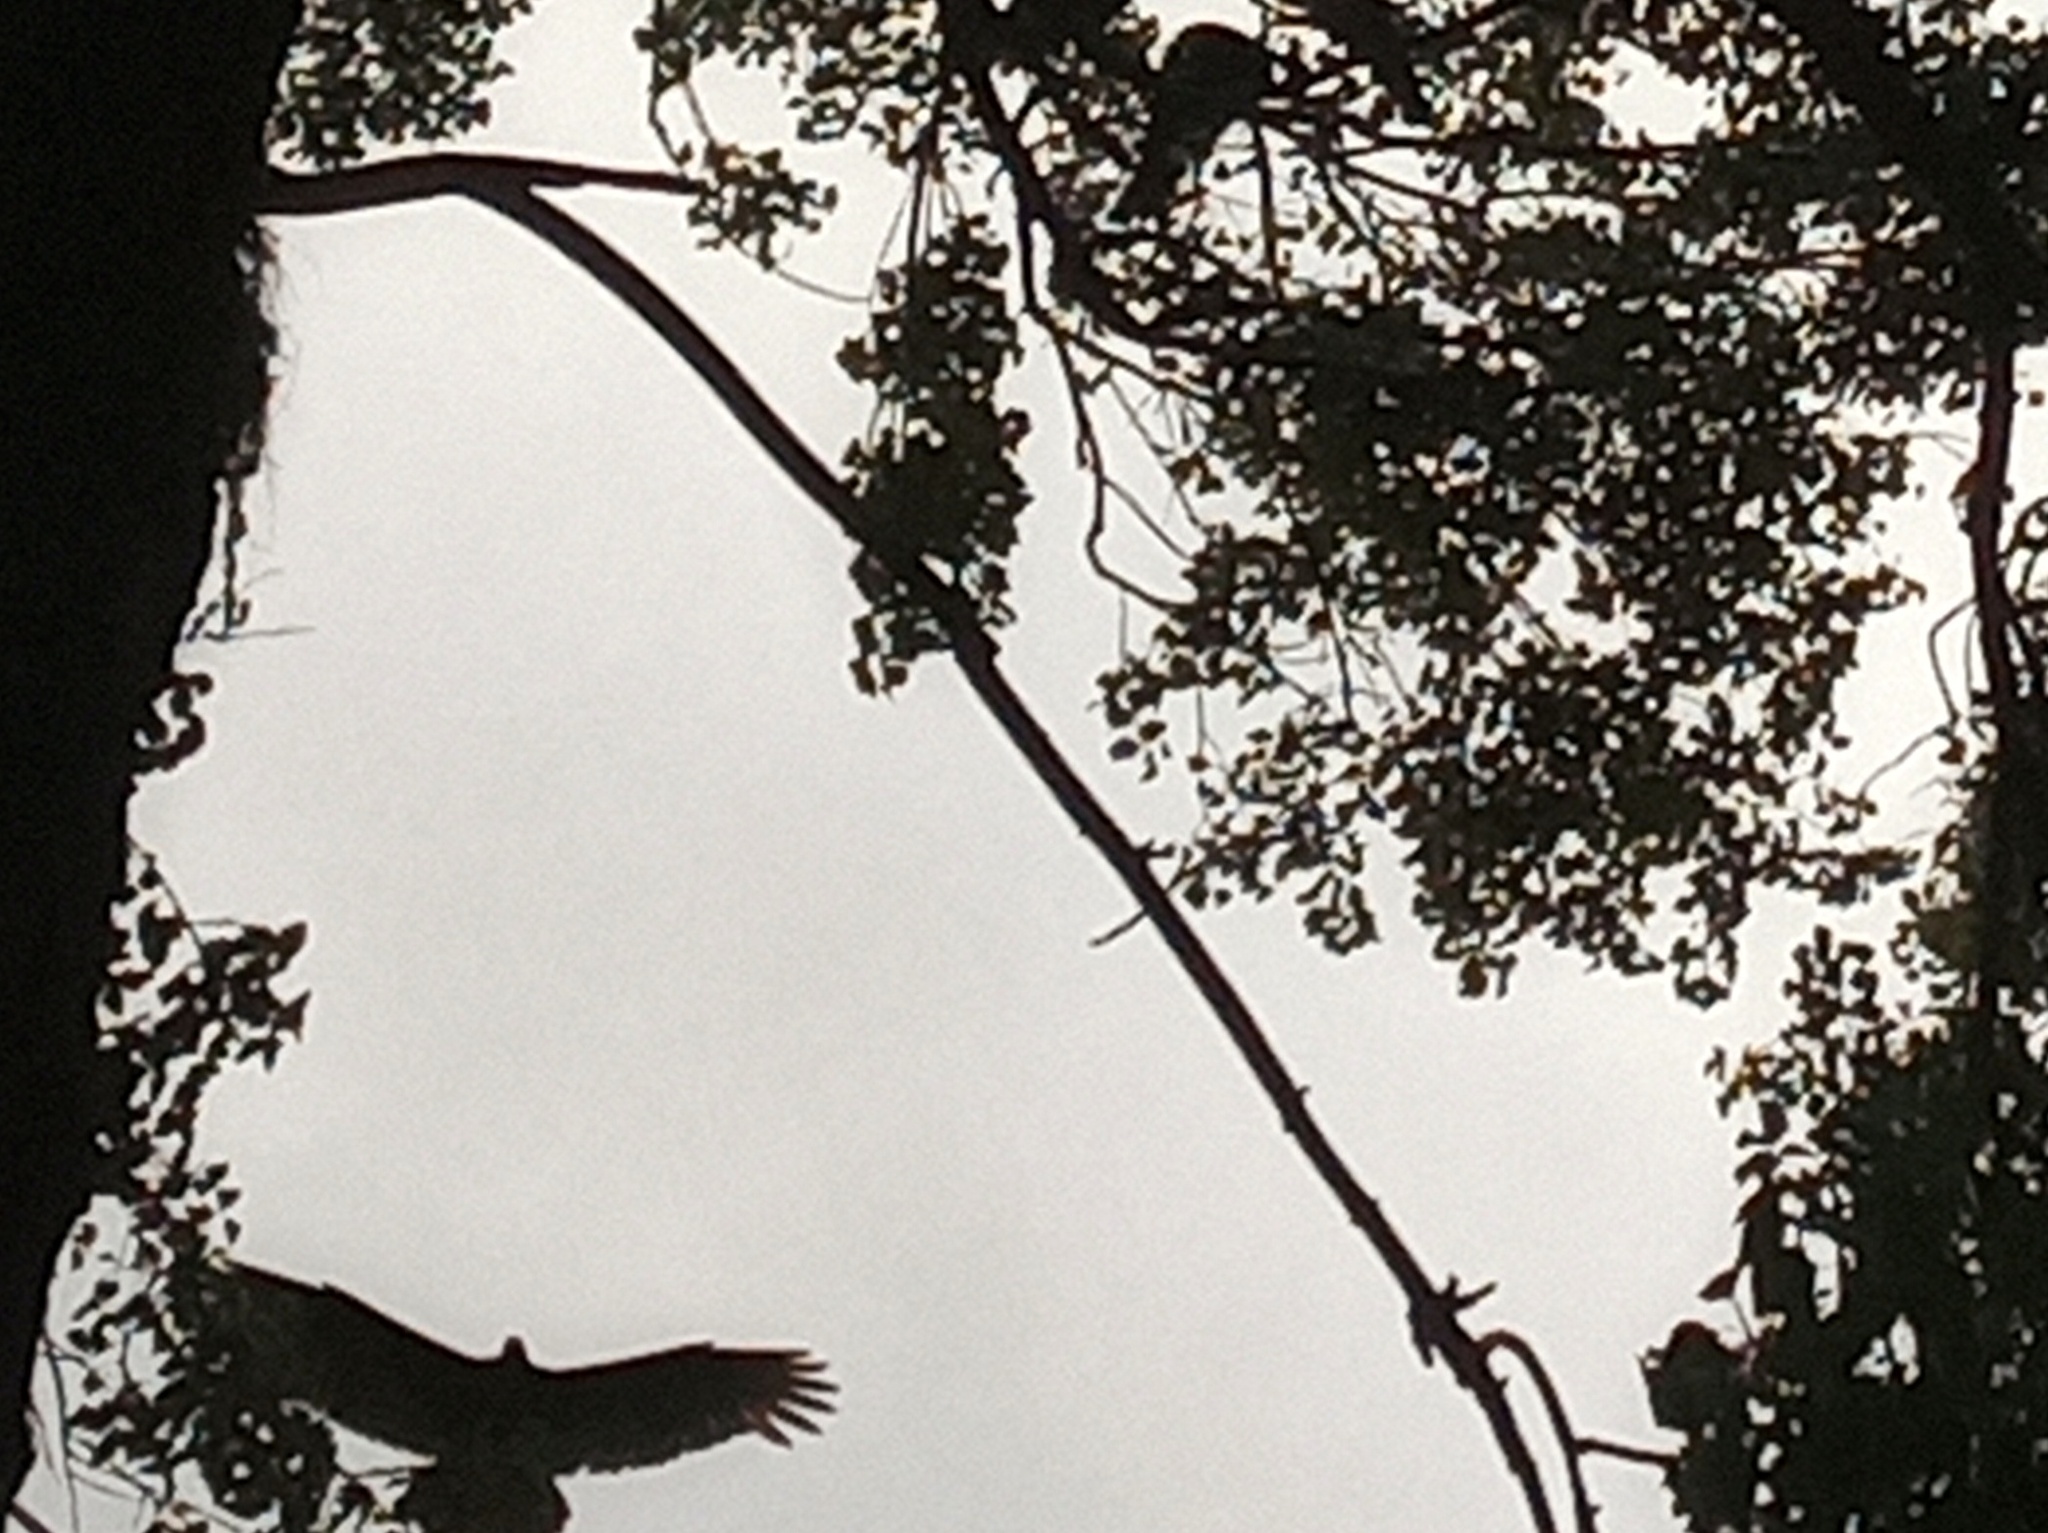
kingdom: Animalia
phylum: Chordata
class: Aves
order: Accipitriformes
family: Cathartidae
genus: Cathartes
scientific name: Cathartes aura
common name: Turkey vulture
